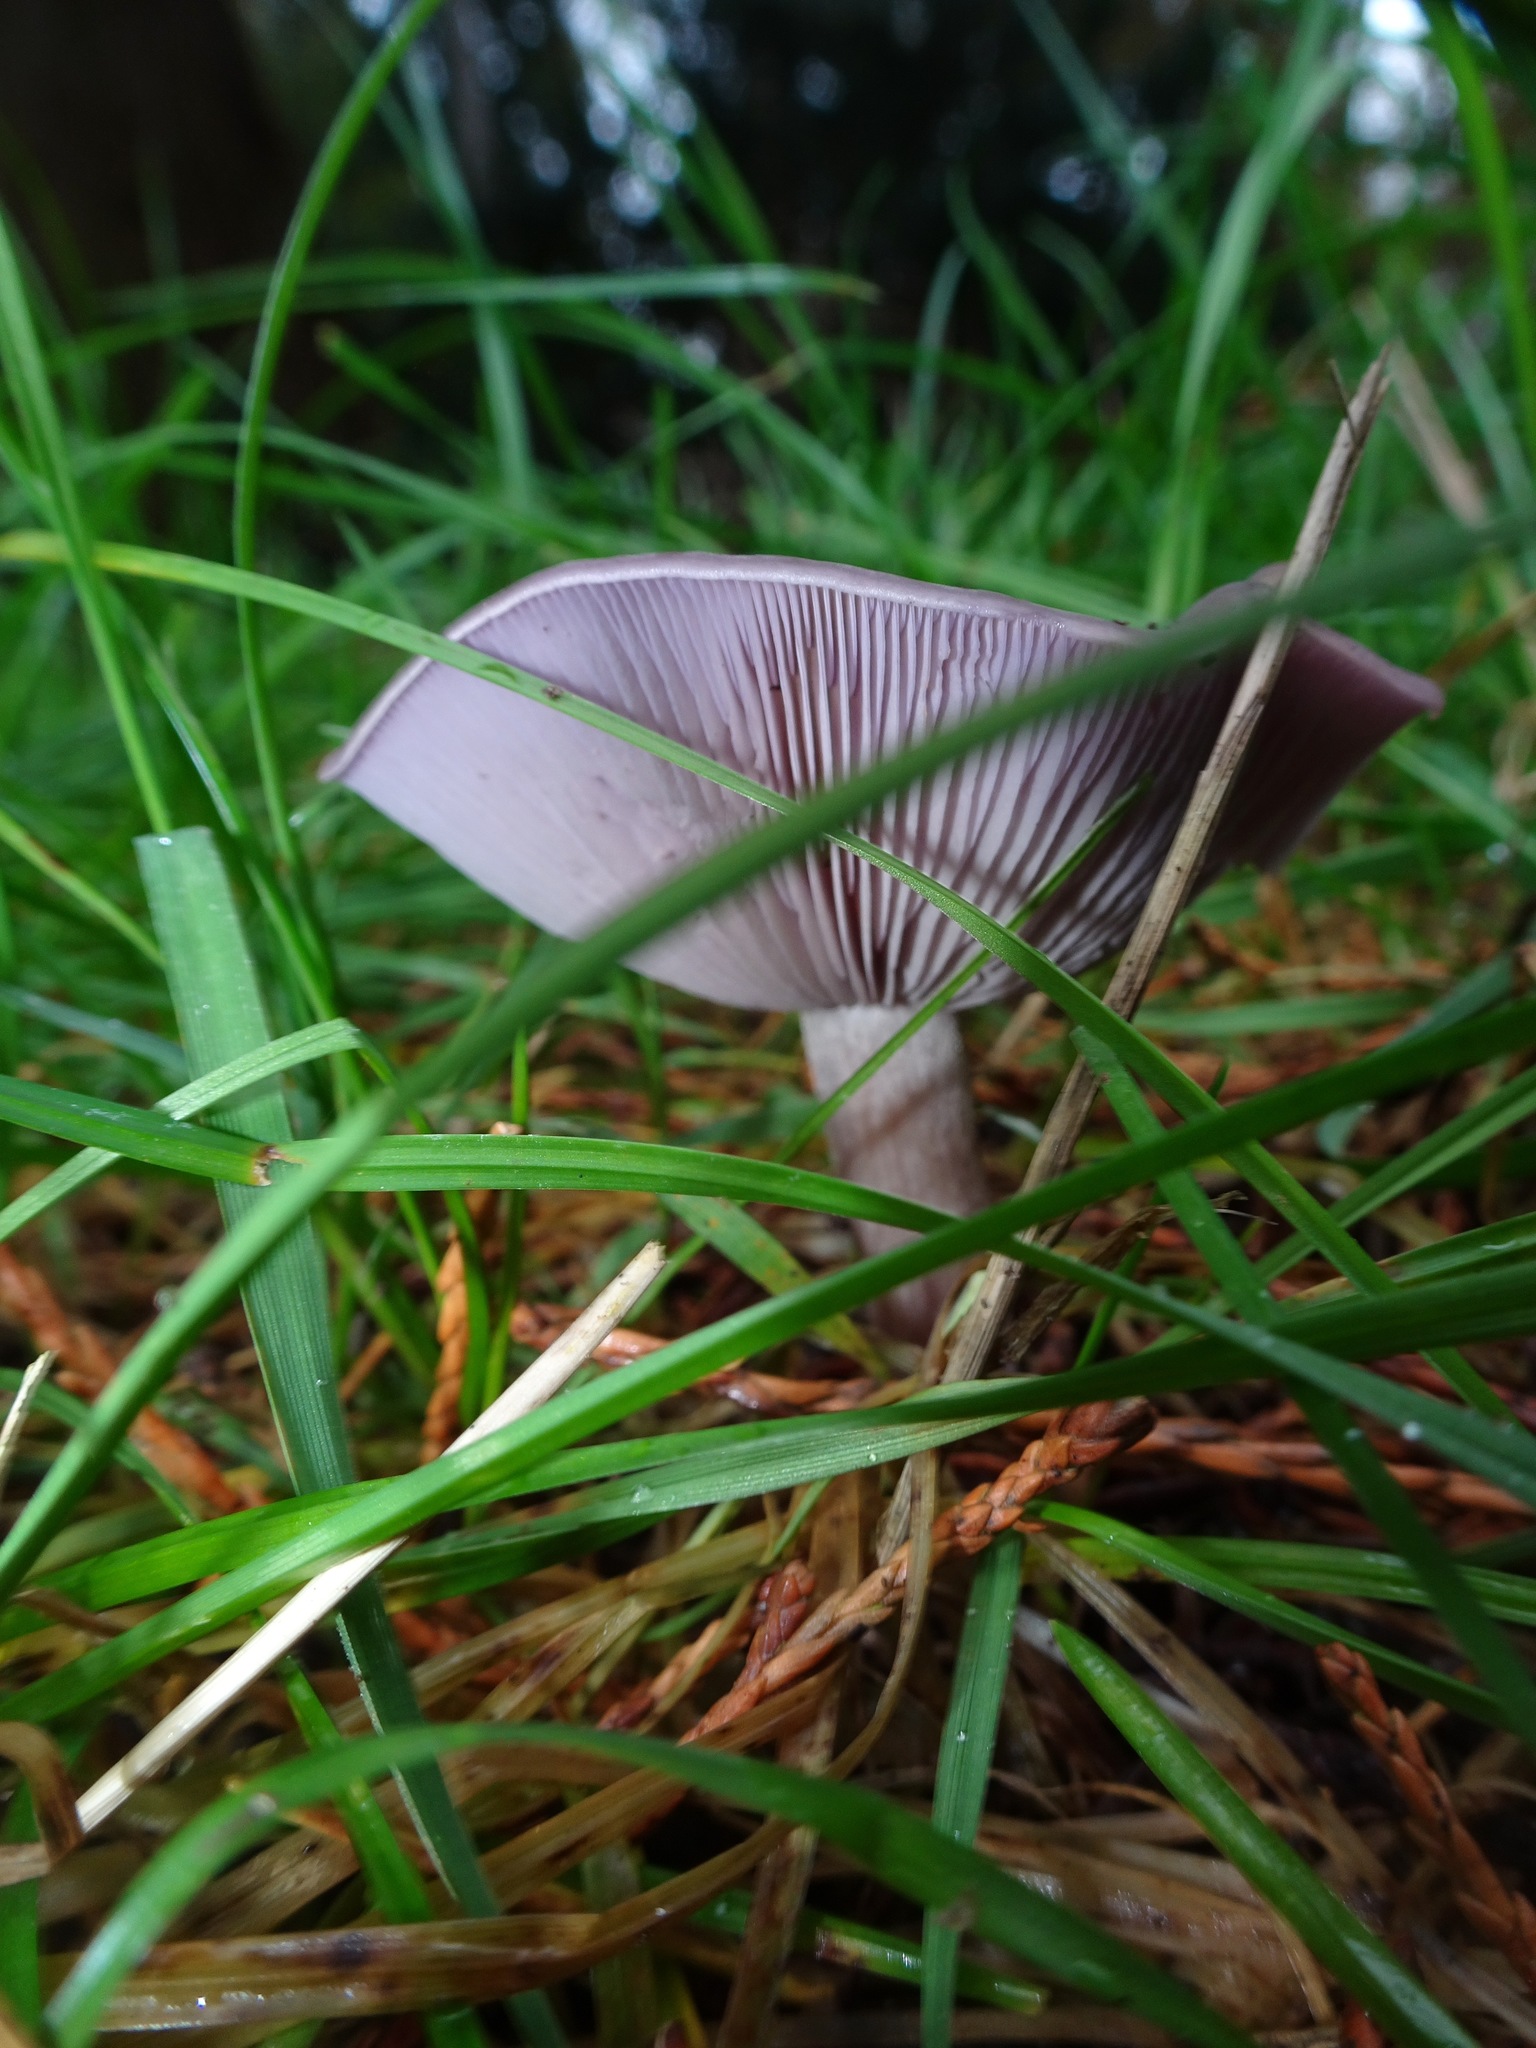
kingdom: Fungi
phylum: Basidiomycota
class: Agaricomycetes
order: Agaricales
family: Tricholomataceae
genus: Collybia
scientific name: Collybia
